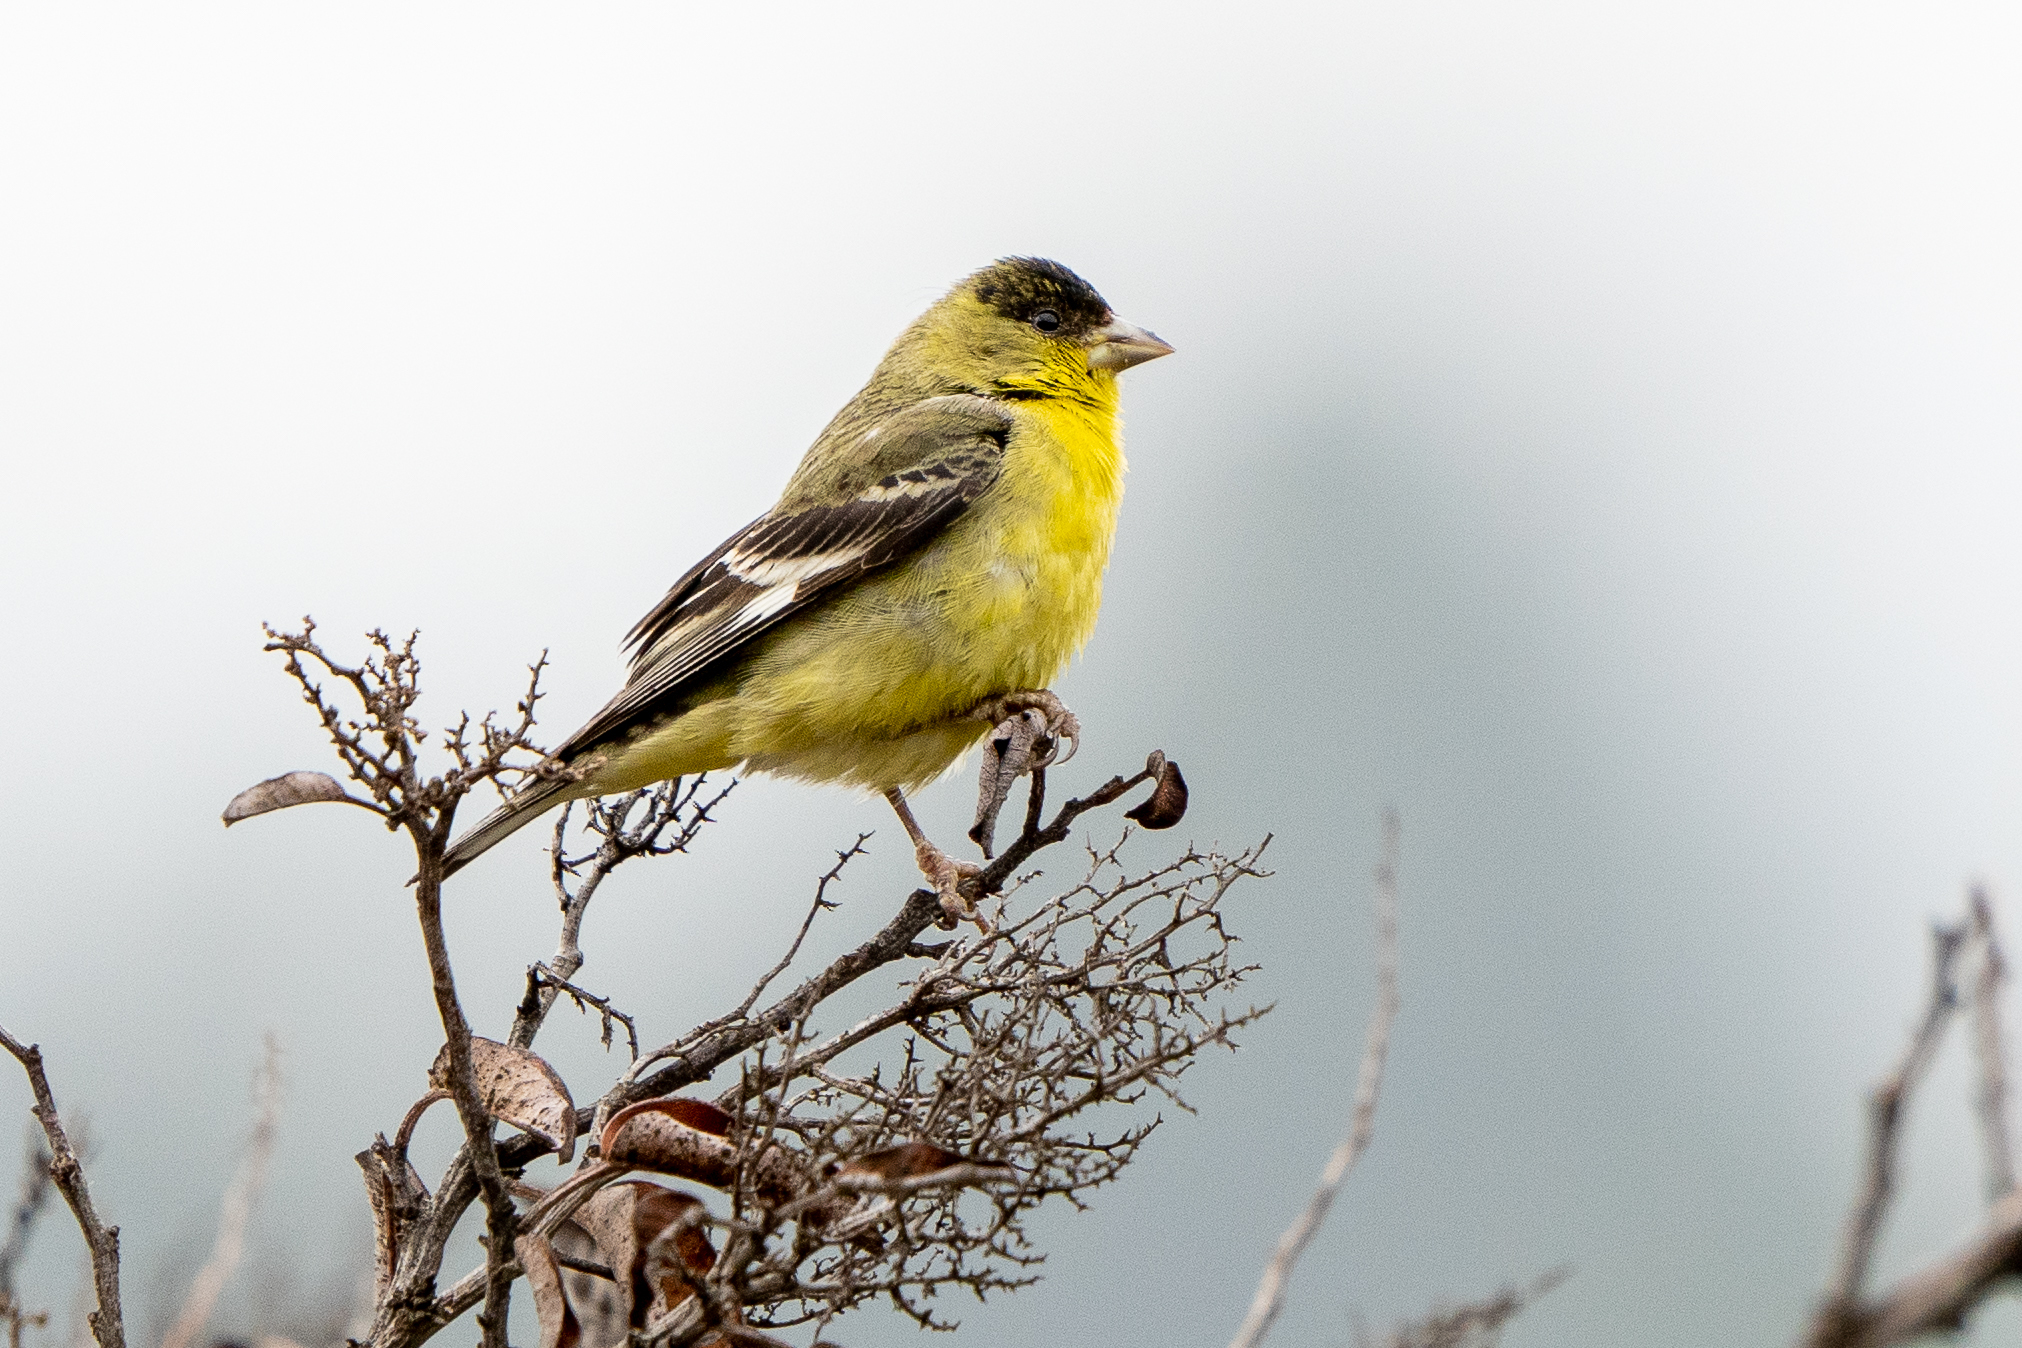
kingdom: Animalia
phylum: Chordata
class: Aves
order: Passeriformes
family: Fringillidae
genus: Spinus
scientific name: Spinus psaltria
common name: Lesser goldfinch
